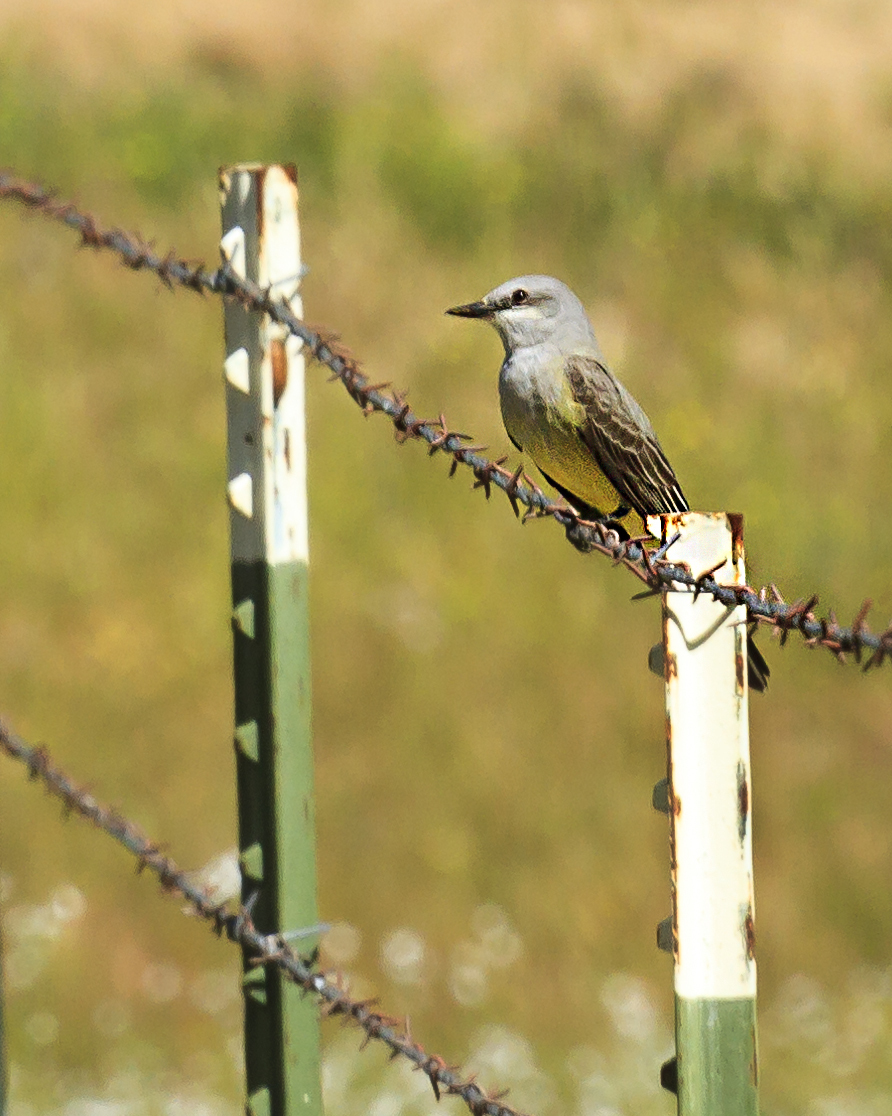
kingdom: Animalia
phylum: Chordata
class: Aves
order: Passeriformes
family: Tyrannidae
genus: Tyrannus
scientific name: Tyrannus verticalis
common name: Western kingbird
